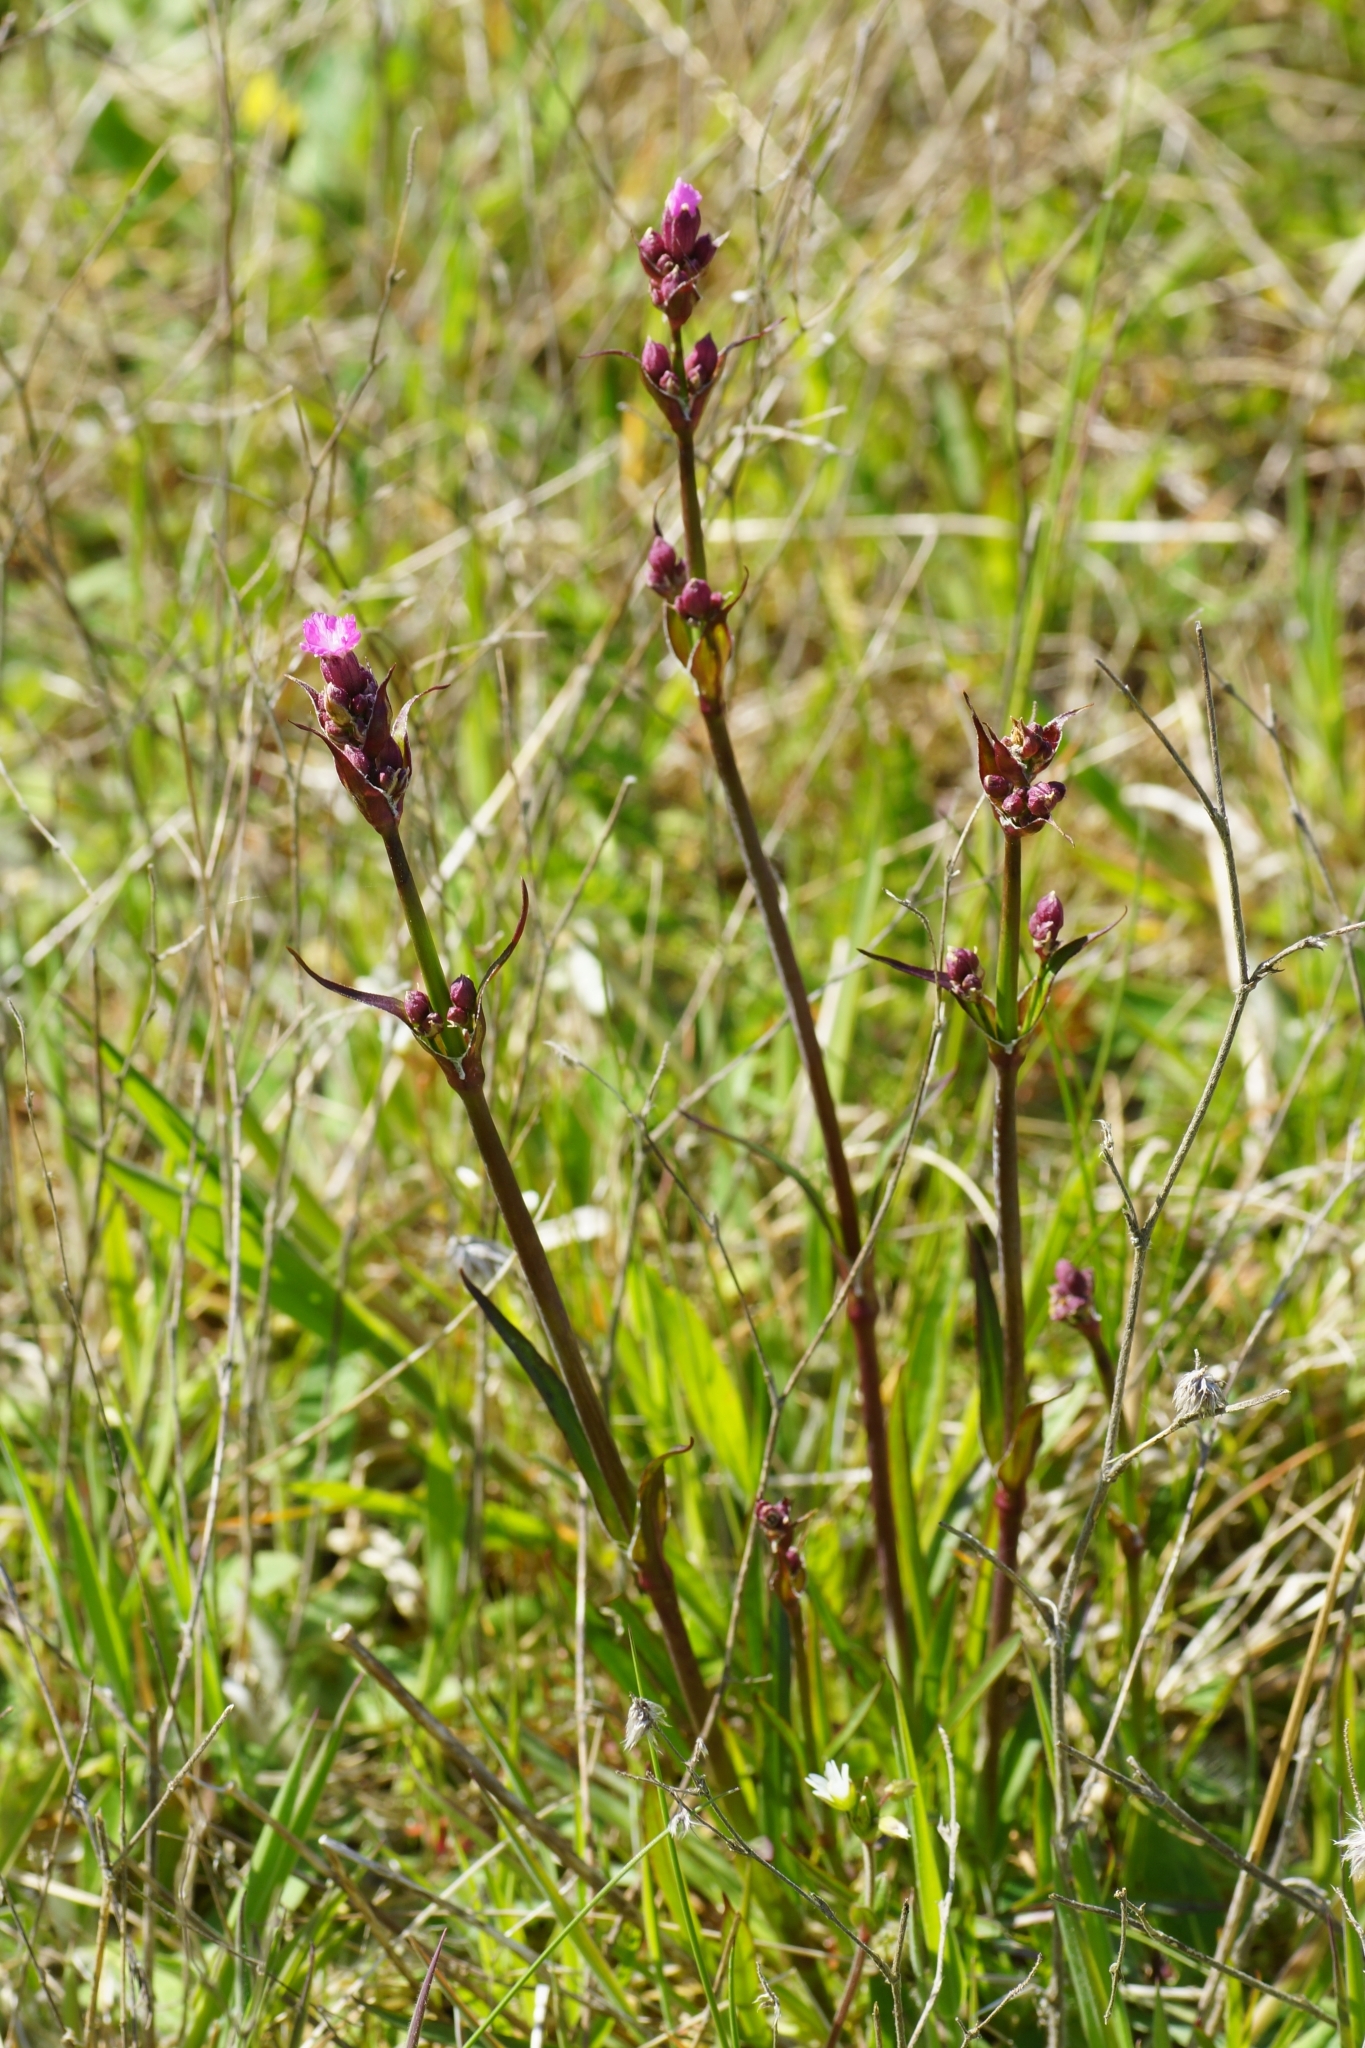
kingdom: Plantae
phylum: Tracheophyta
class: Magnoliopsida
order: Caryophyllales
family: Caryophyllaceae
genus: Viscaria
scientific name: Viscaria vulgaris
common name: Clammy campion
